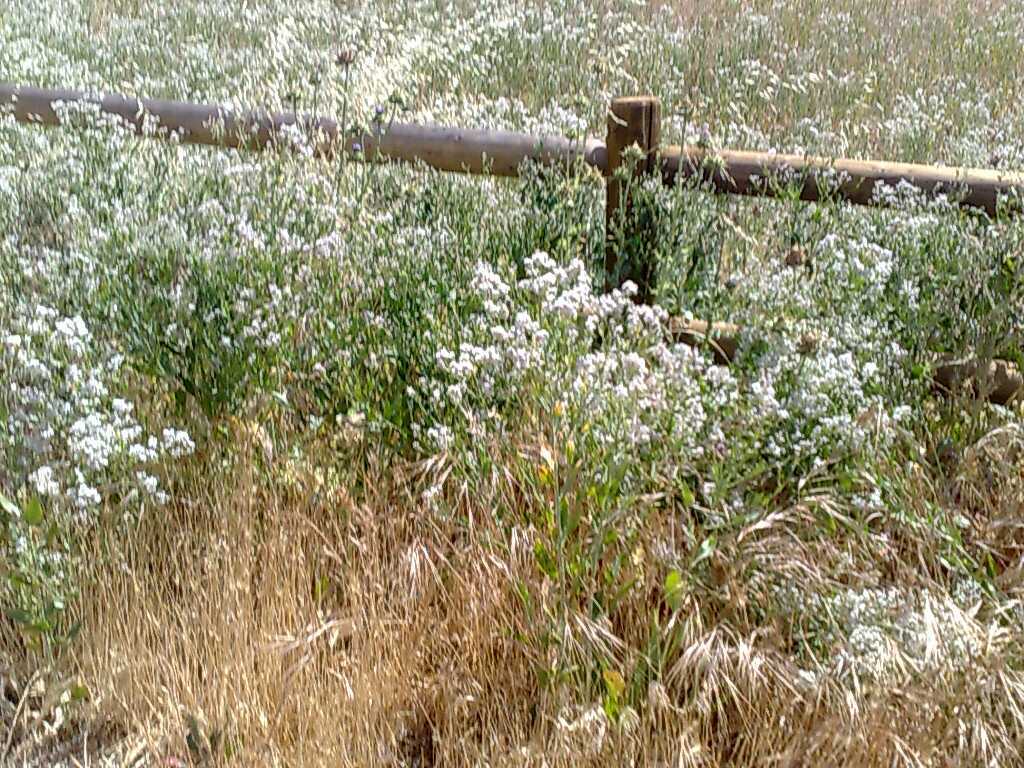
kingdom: Plantae
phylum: Tracheophyta
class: Magnoliopsida
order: Brassicales
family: Brassicaceae
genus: Lepidium
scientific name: Lepidium latifolium
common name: Dittander
